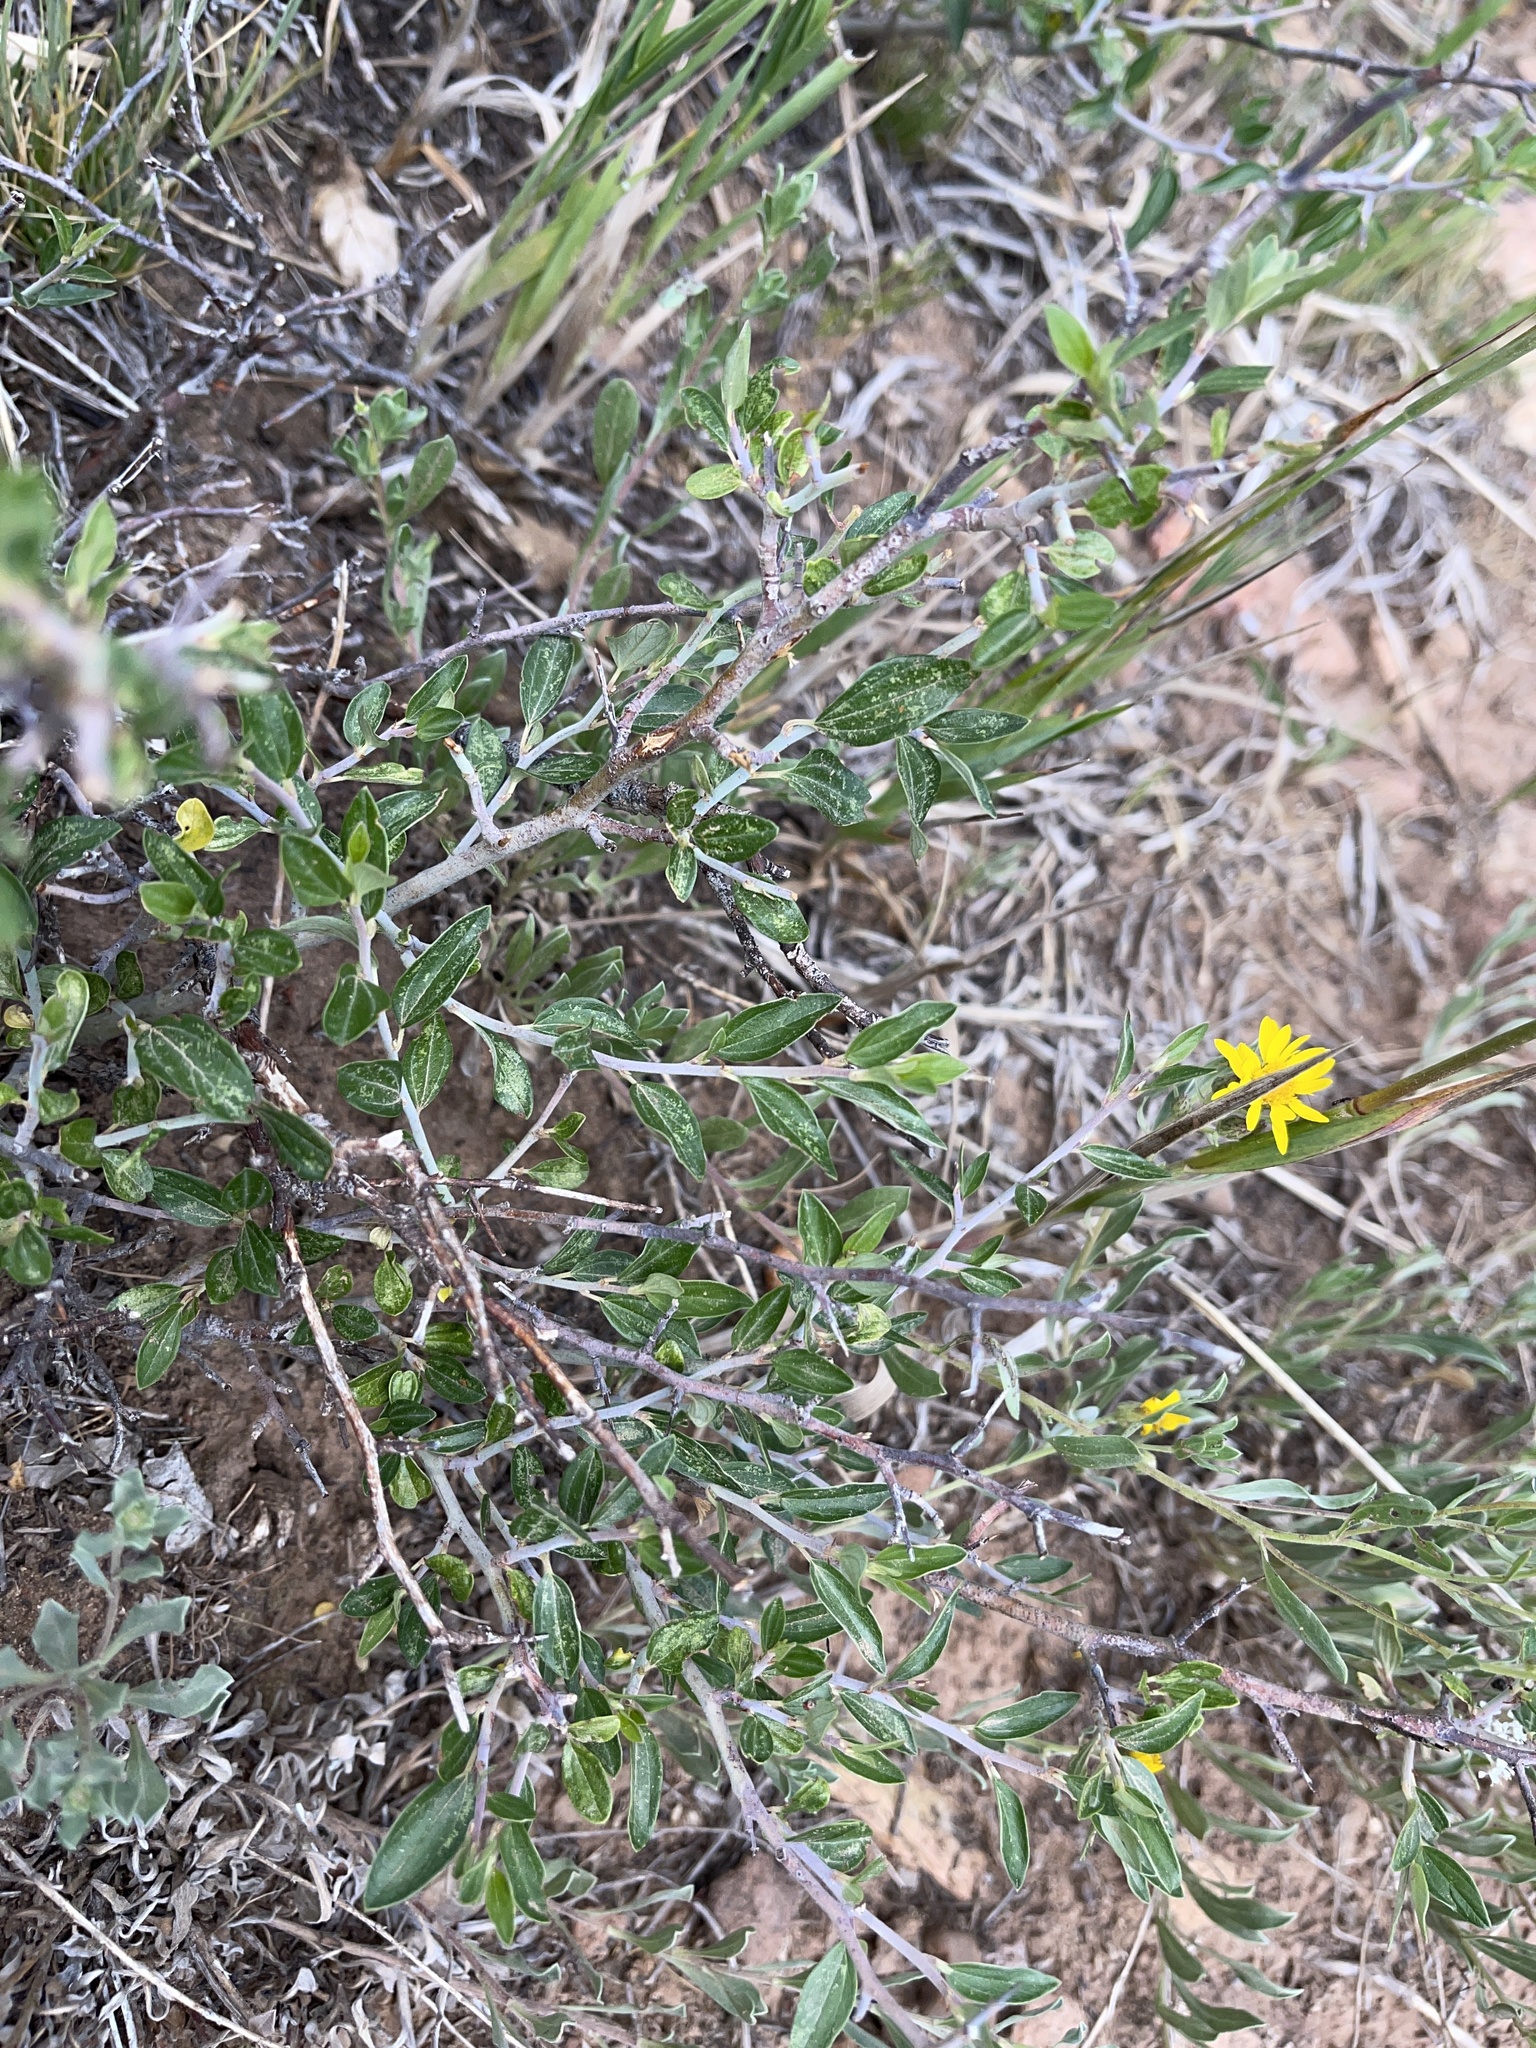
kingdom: Plantae
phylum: Tracheophyta
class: Magnoliopsida
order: Rosales
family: Rhamnaceae
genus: Ceanothus
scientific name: Ceanothus fendleri
